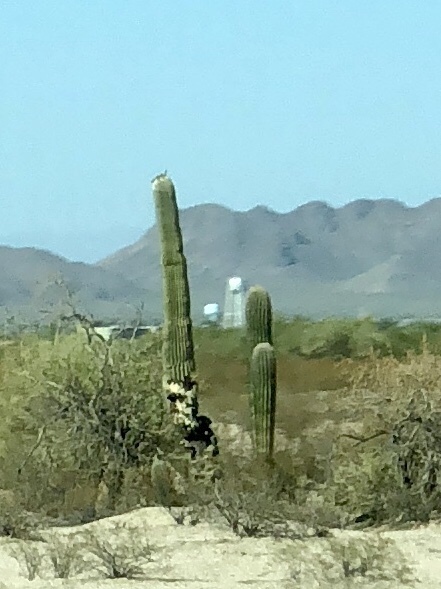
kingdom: Plantae
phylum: Tracheophyta
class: Magnoliopsida
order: Caryophyllales
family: Cactaceae
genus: Carnegiea
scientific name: Carnegiea gigantea
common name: Saguaro
